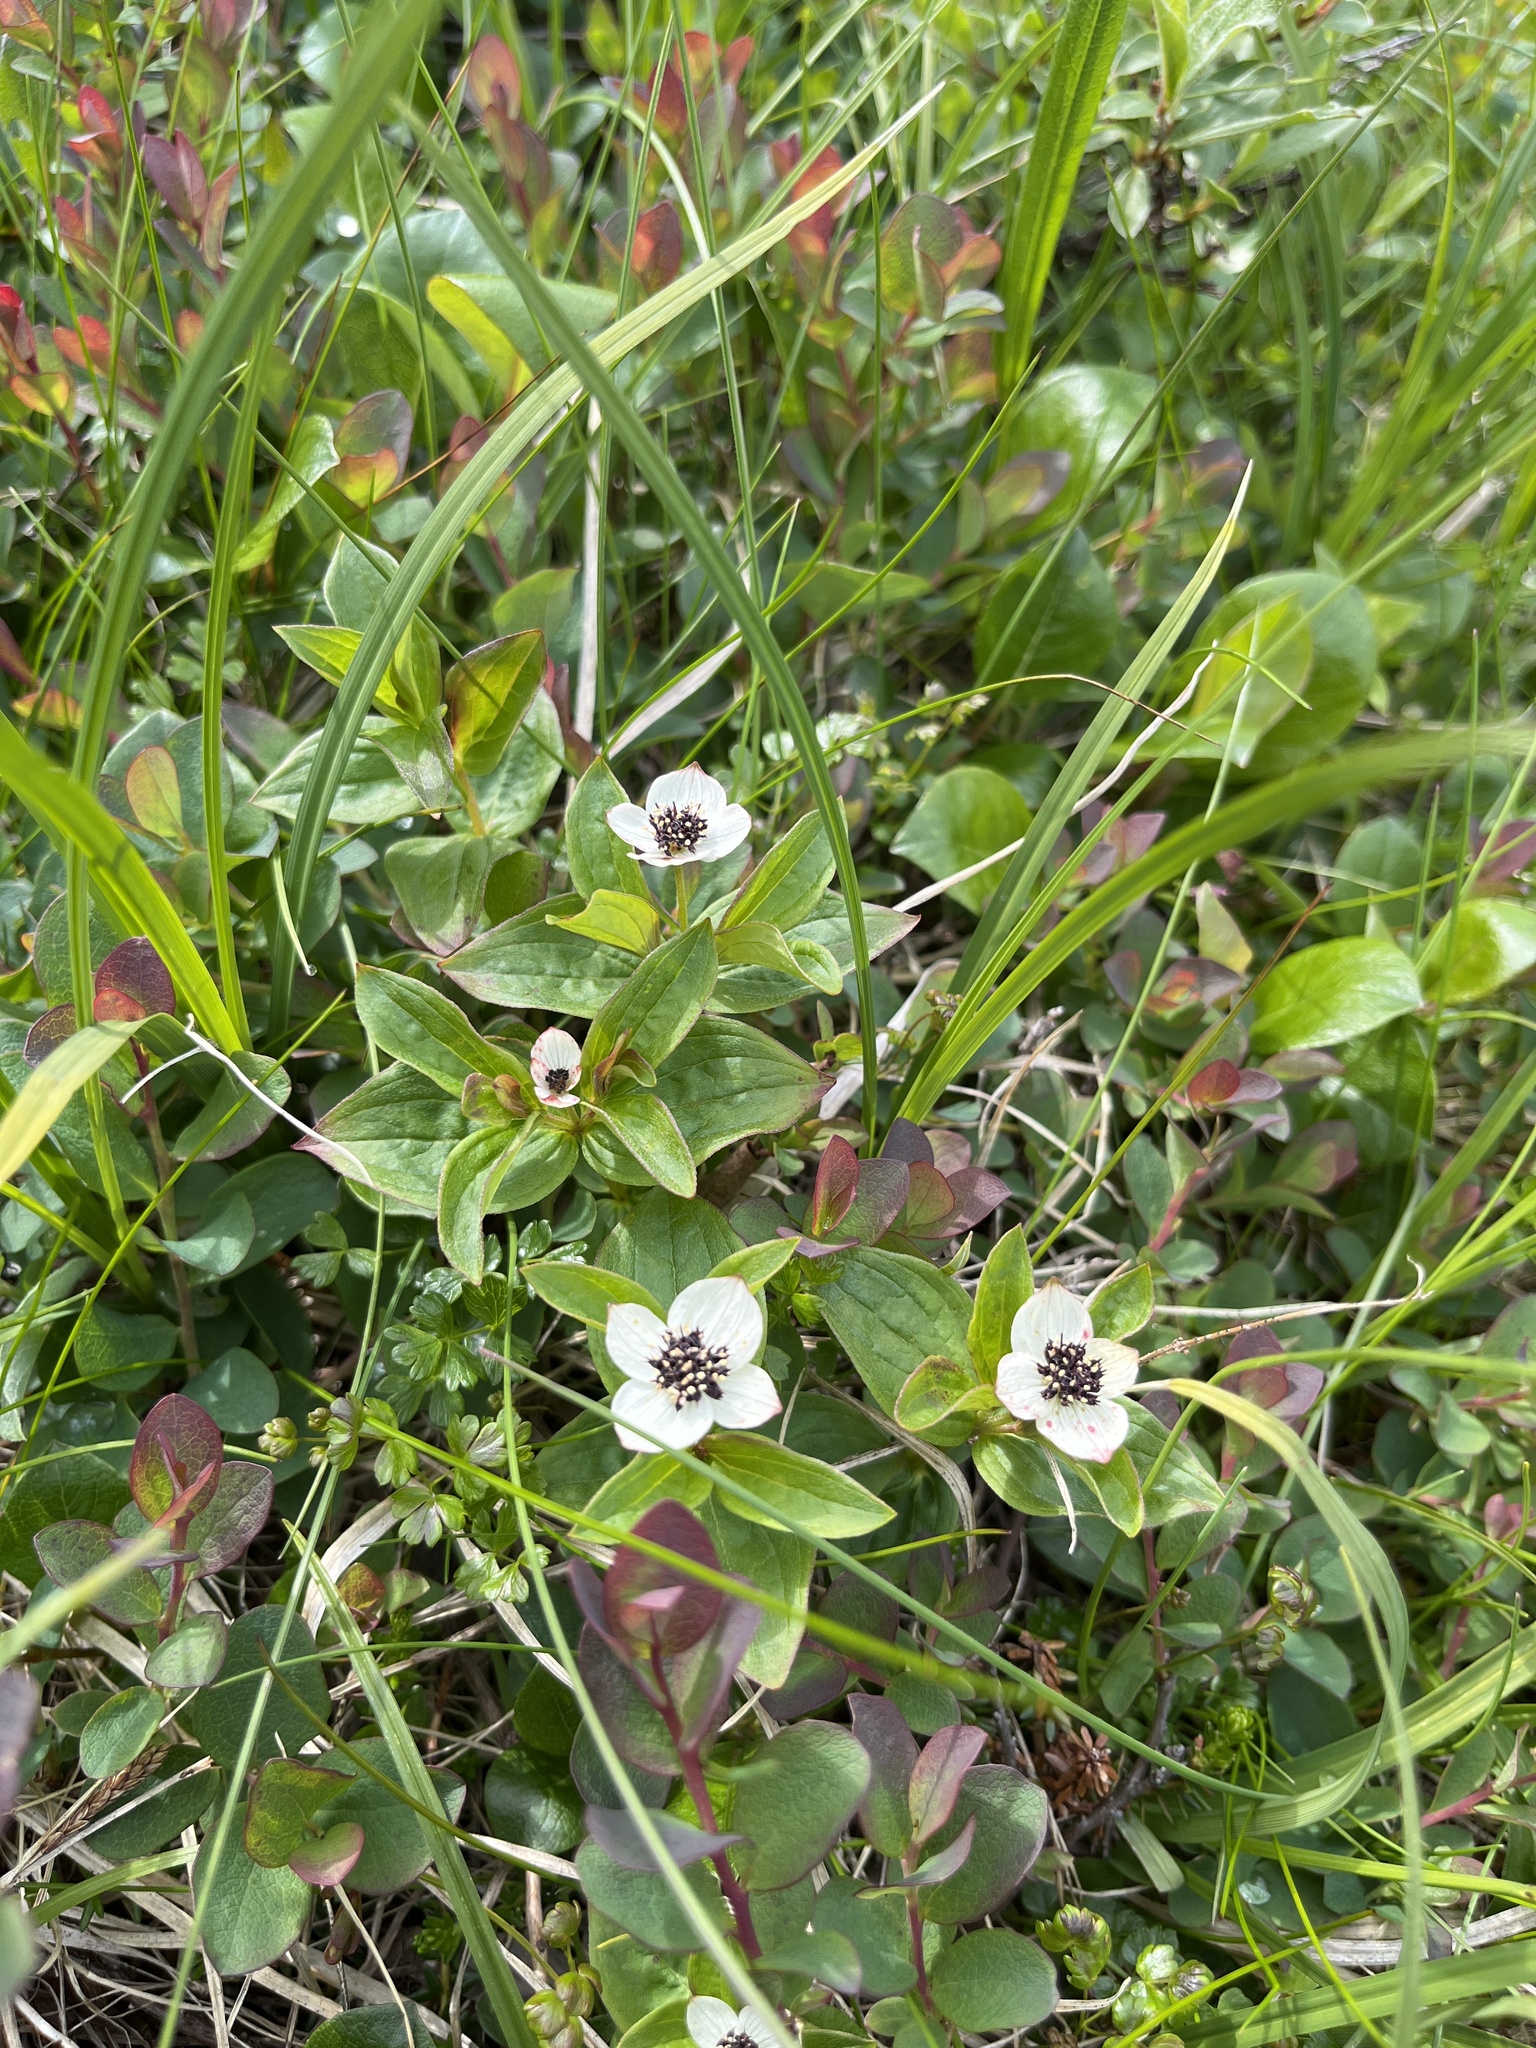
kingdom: Plantae
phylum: Tracheophyta
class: Magnoliopsida
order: Cornales
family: Cornaceae
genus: Cornus
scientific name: Cornus suecica
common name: Dwarf cornel
